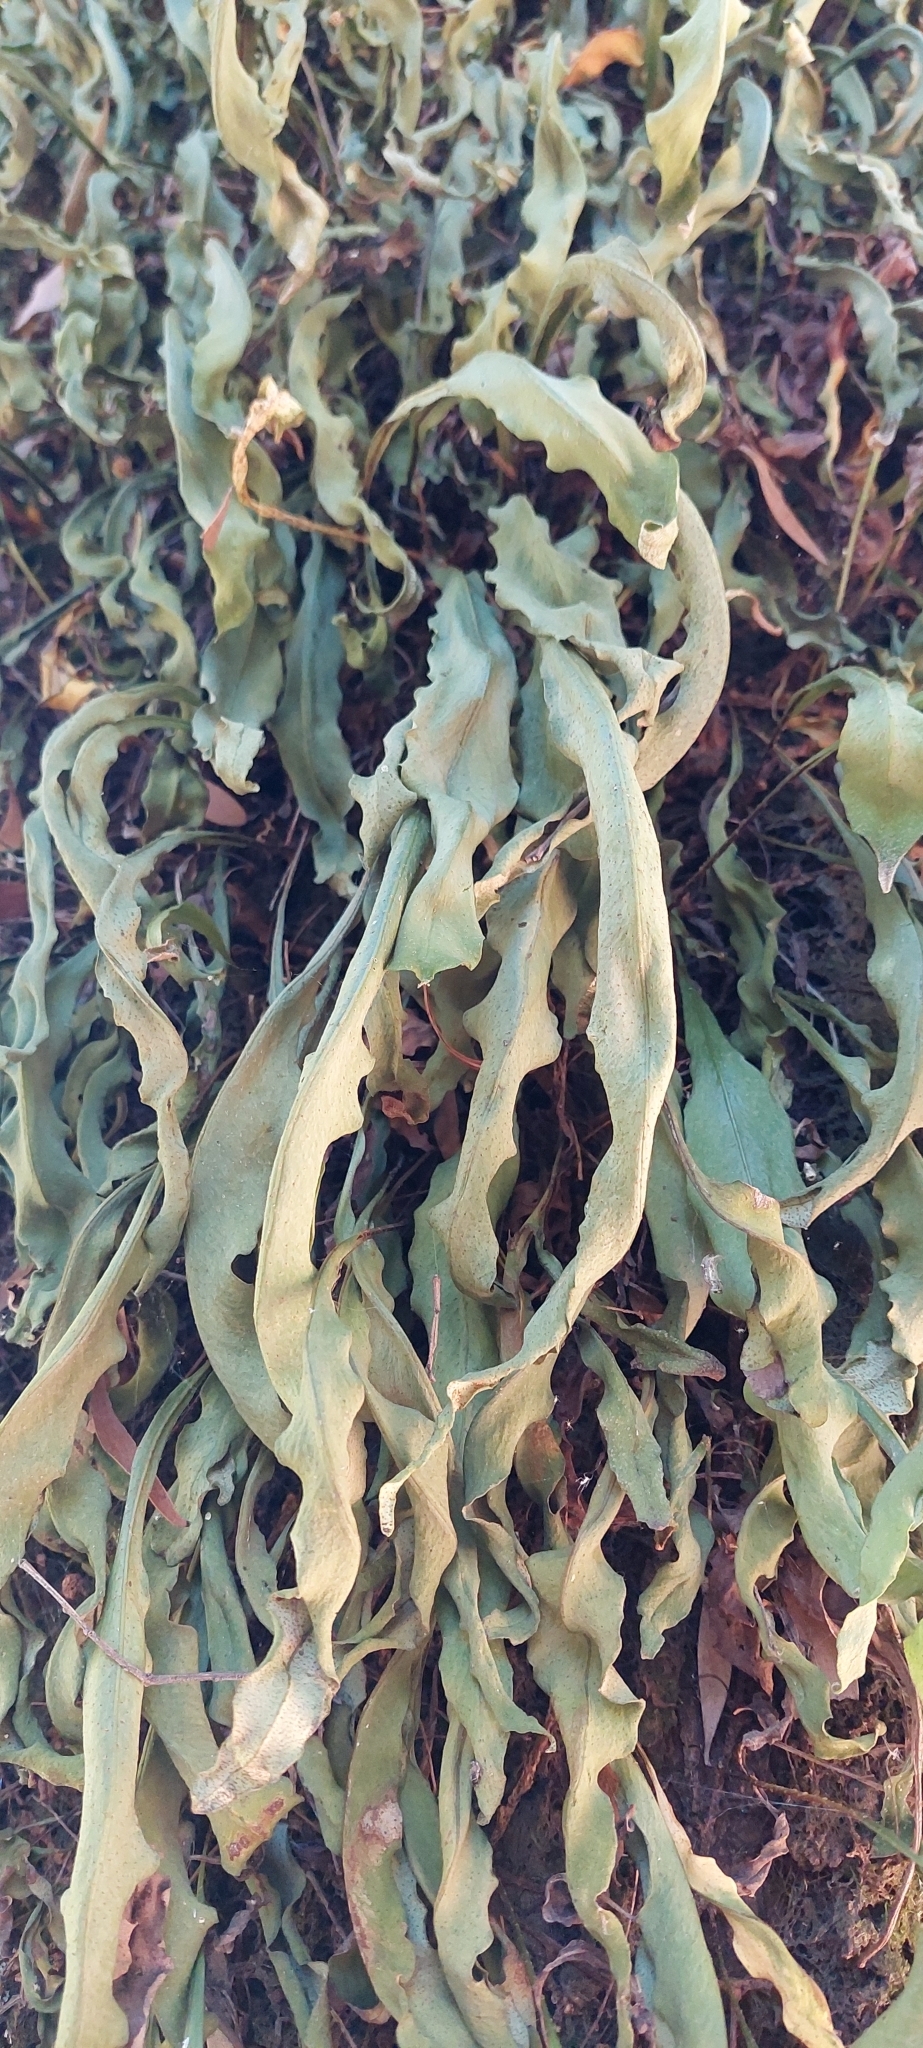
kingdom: Plantae
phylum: Tracheophyta
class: Polypodiopsida
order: Polypodiales
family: Polypodiaceae
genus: Pleopeltis
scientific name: Pleopeltis macrocarpa
